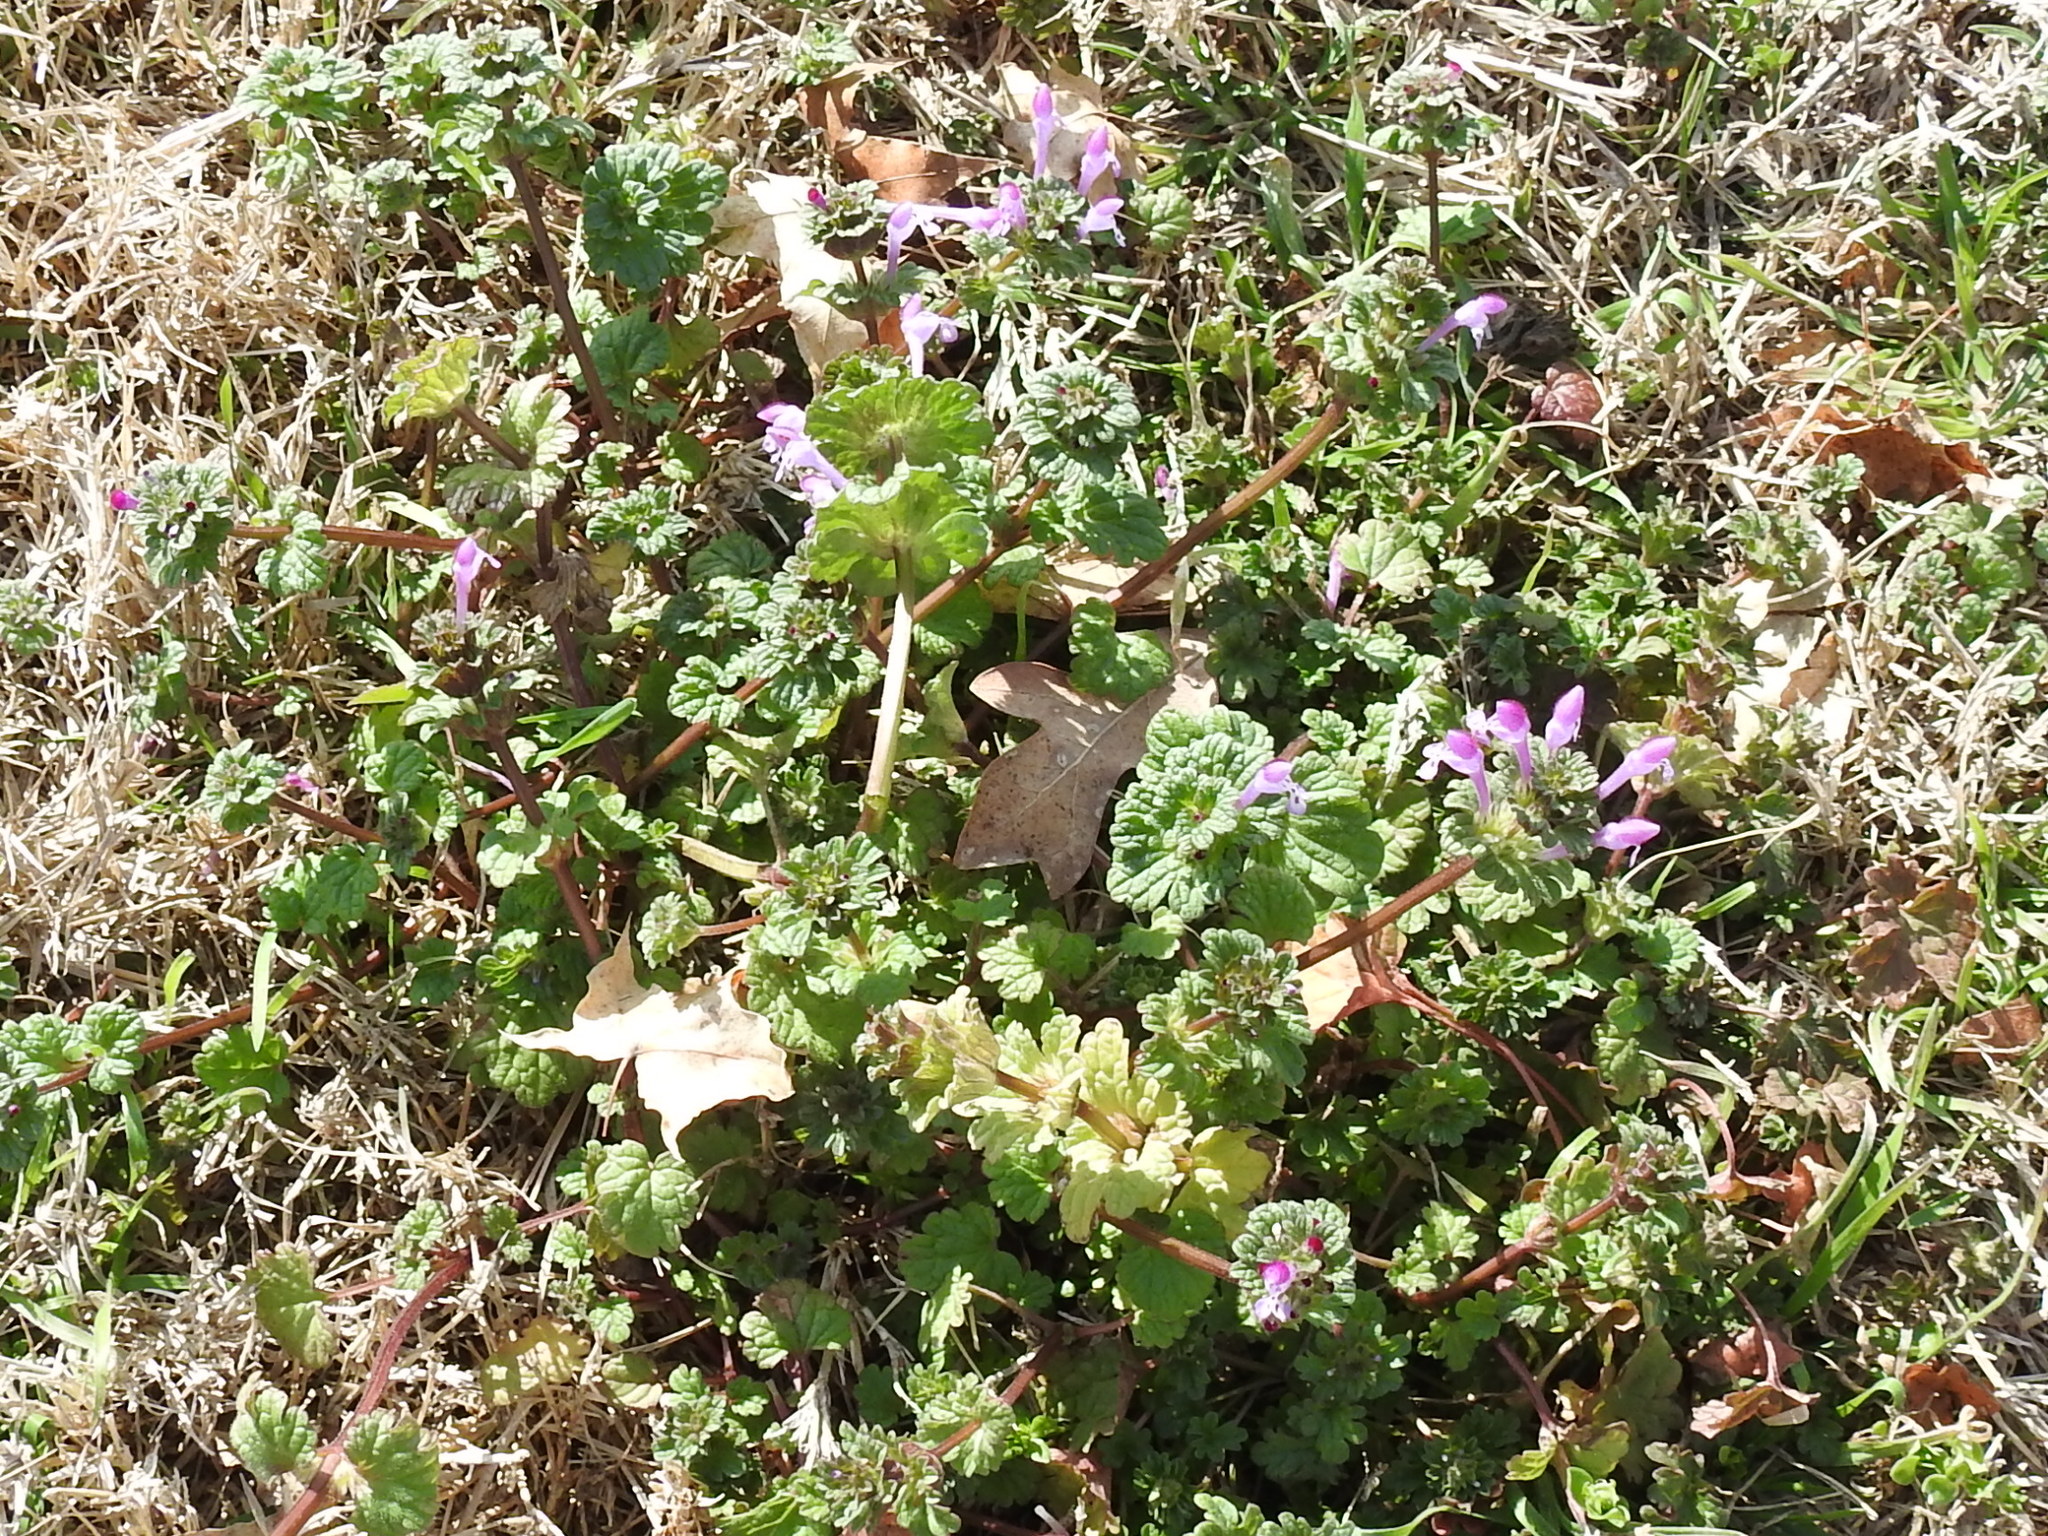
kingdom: Plantae
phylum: Tracheophyta
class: Magnoliopsida
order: Lamiales
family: Lamiaceae
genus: Lamium
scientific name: Lamium amplexicaule
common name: Henbit dead-nettle
